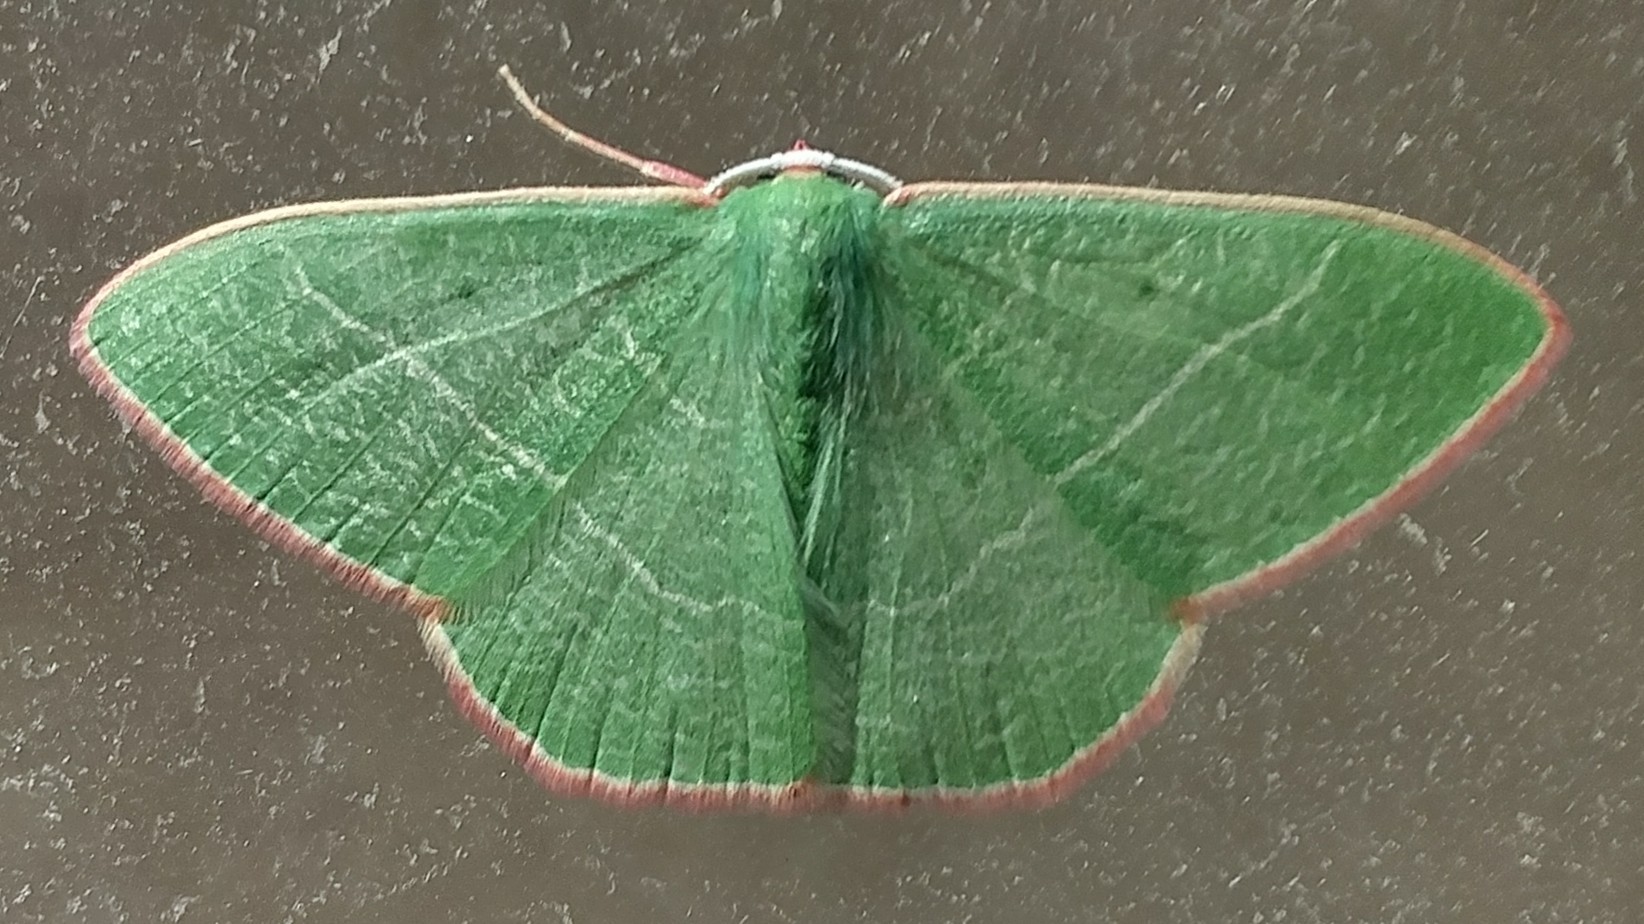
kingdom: Animalia
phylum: Arthropoda
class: Insecta
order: Lepidoptera
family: Geometridae
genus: Nemoria
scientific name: Nemoria leptalea
